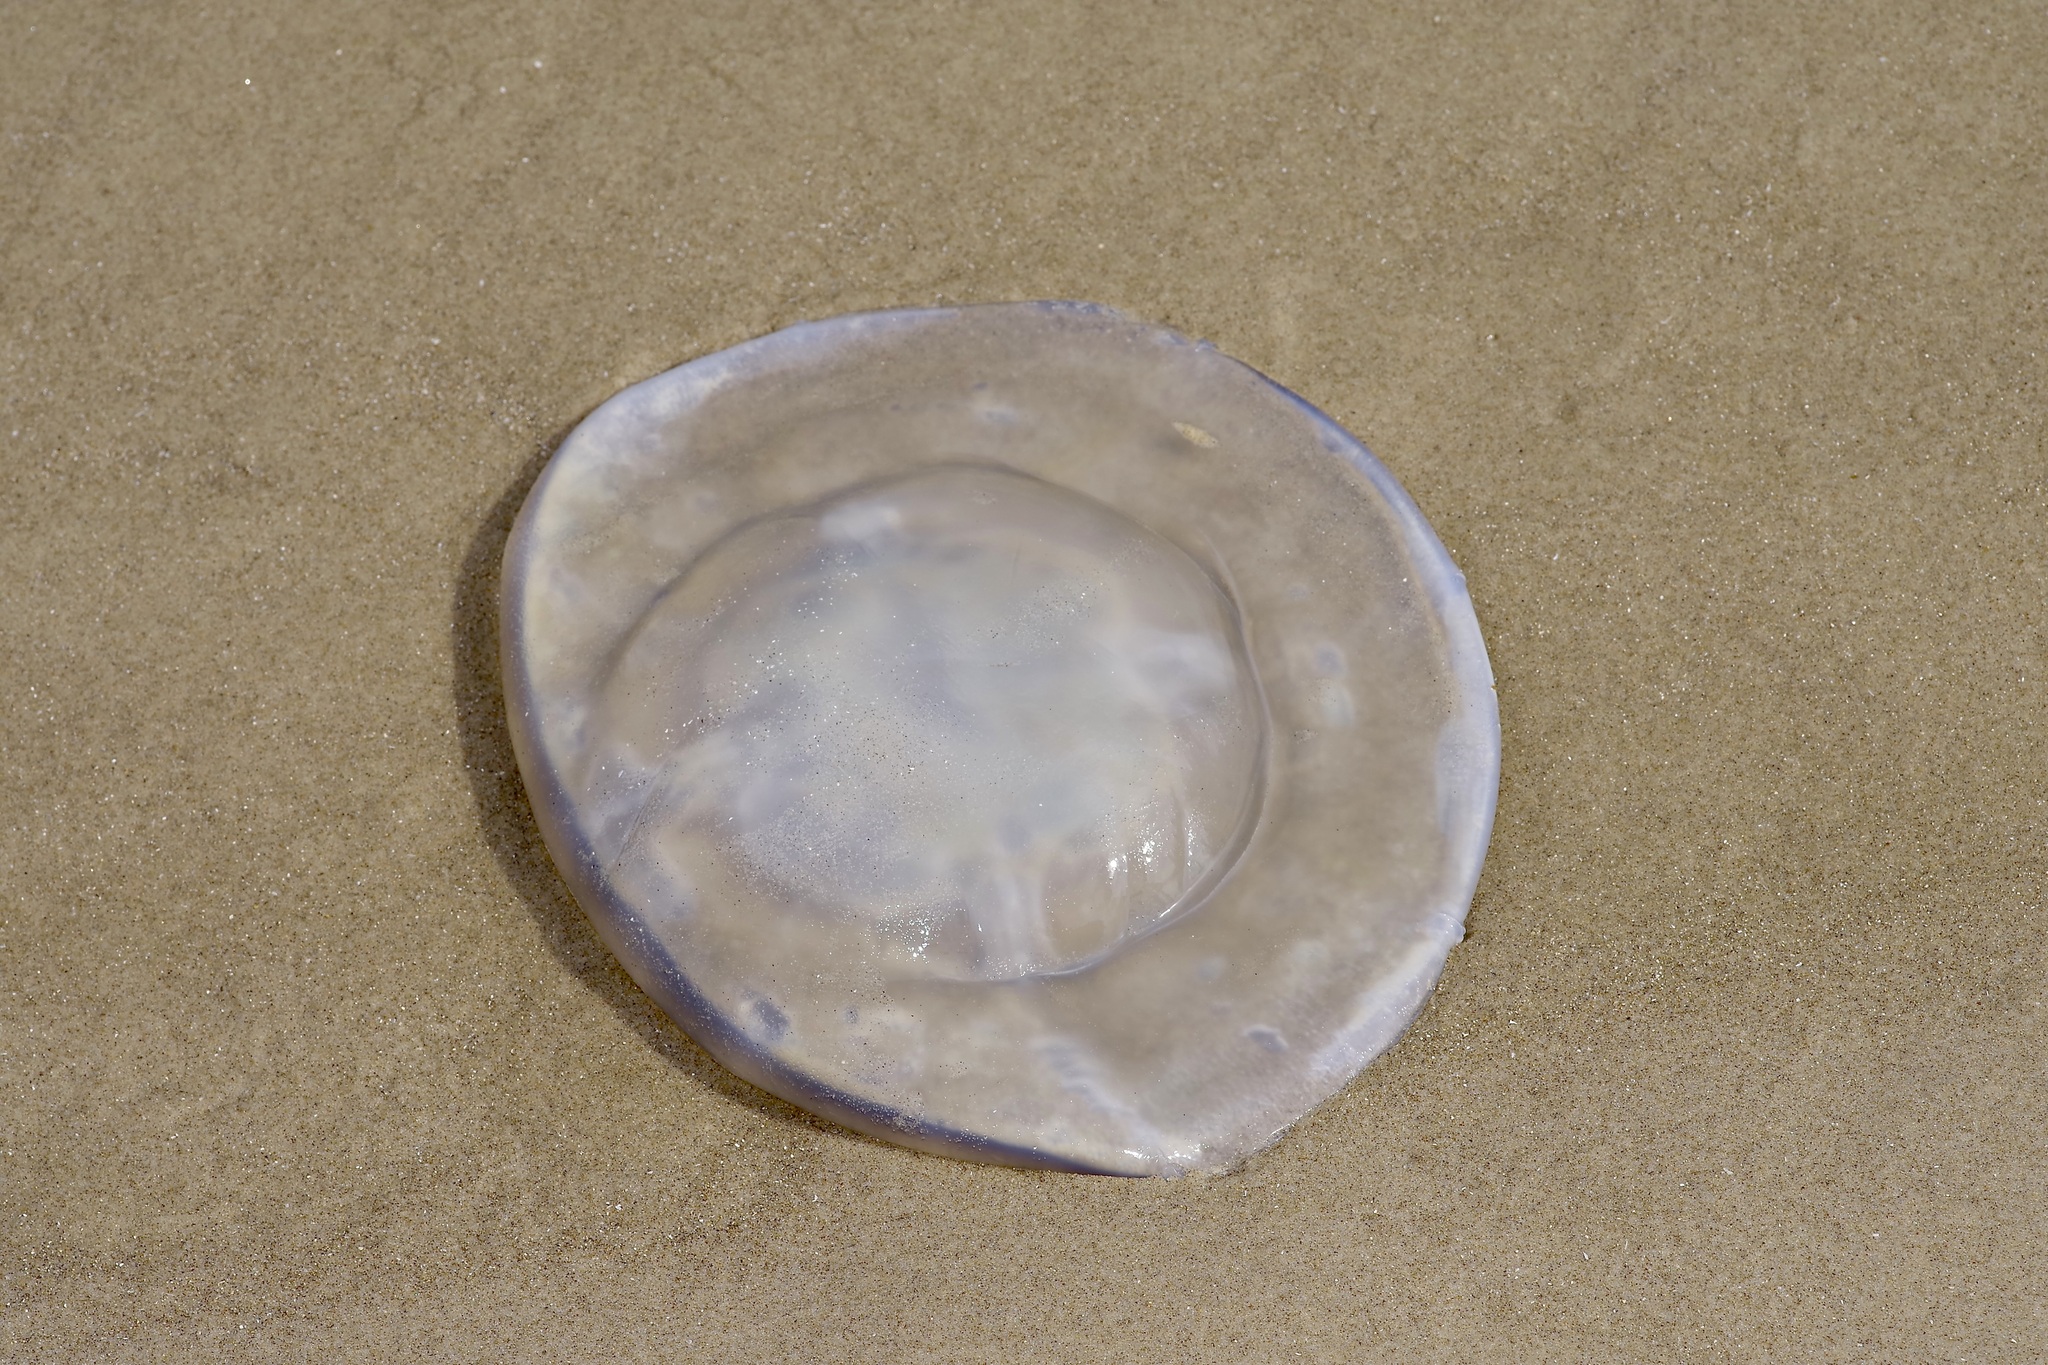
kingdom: Animalia
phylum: Cnidaria
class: Scyphozoa
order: Rhizostomeae
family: Stomolophidae
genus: Stomolophus
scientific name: Stomolophus meleagris
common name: Cabbagehead
